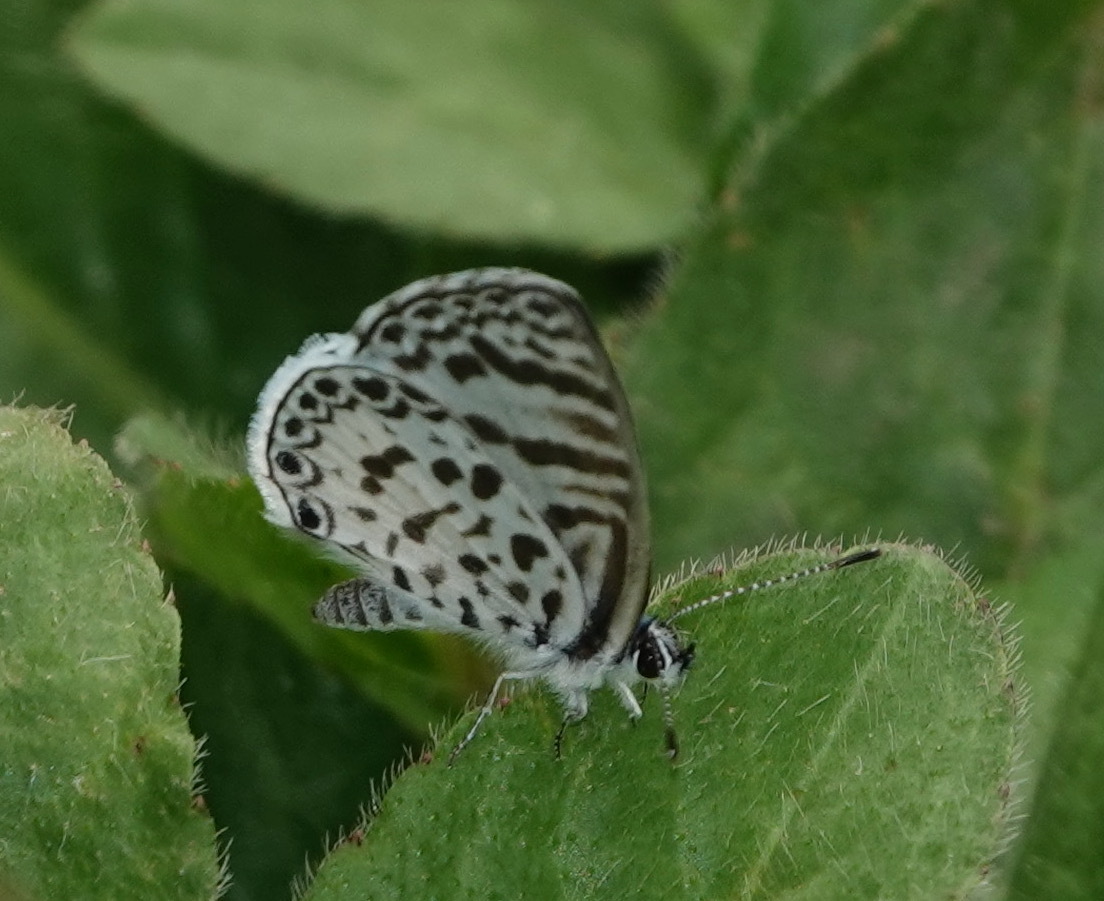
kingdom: Animalia
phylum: Arthropoda
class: Insecta
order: Lepidoptera
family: Lycaenidae
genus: Leptotes
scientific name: Leptotes cassius
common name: Cassius blue
